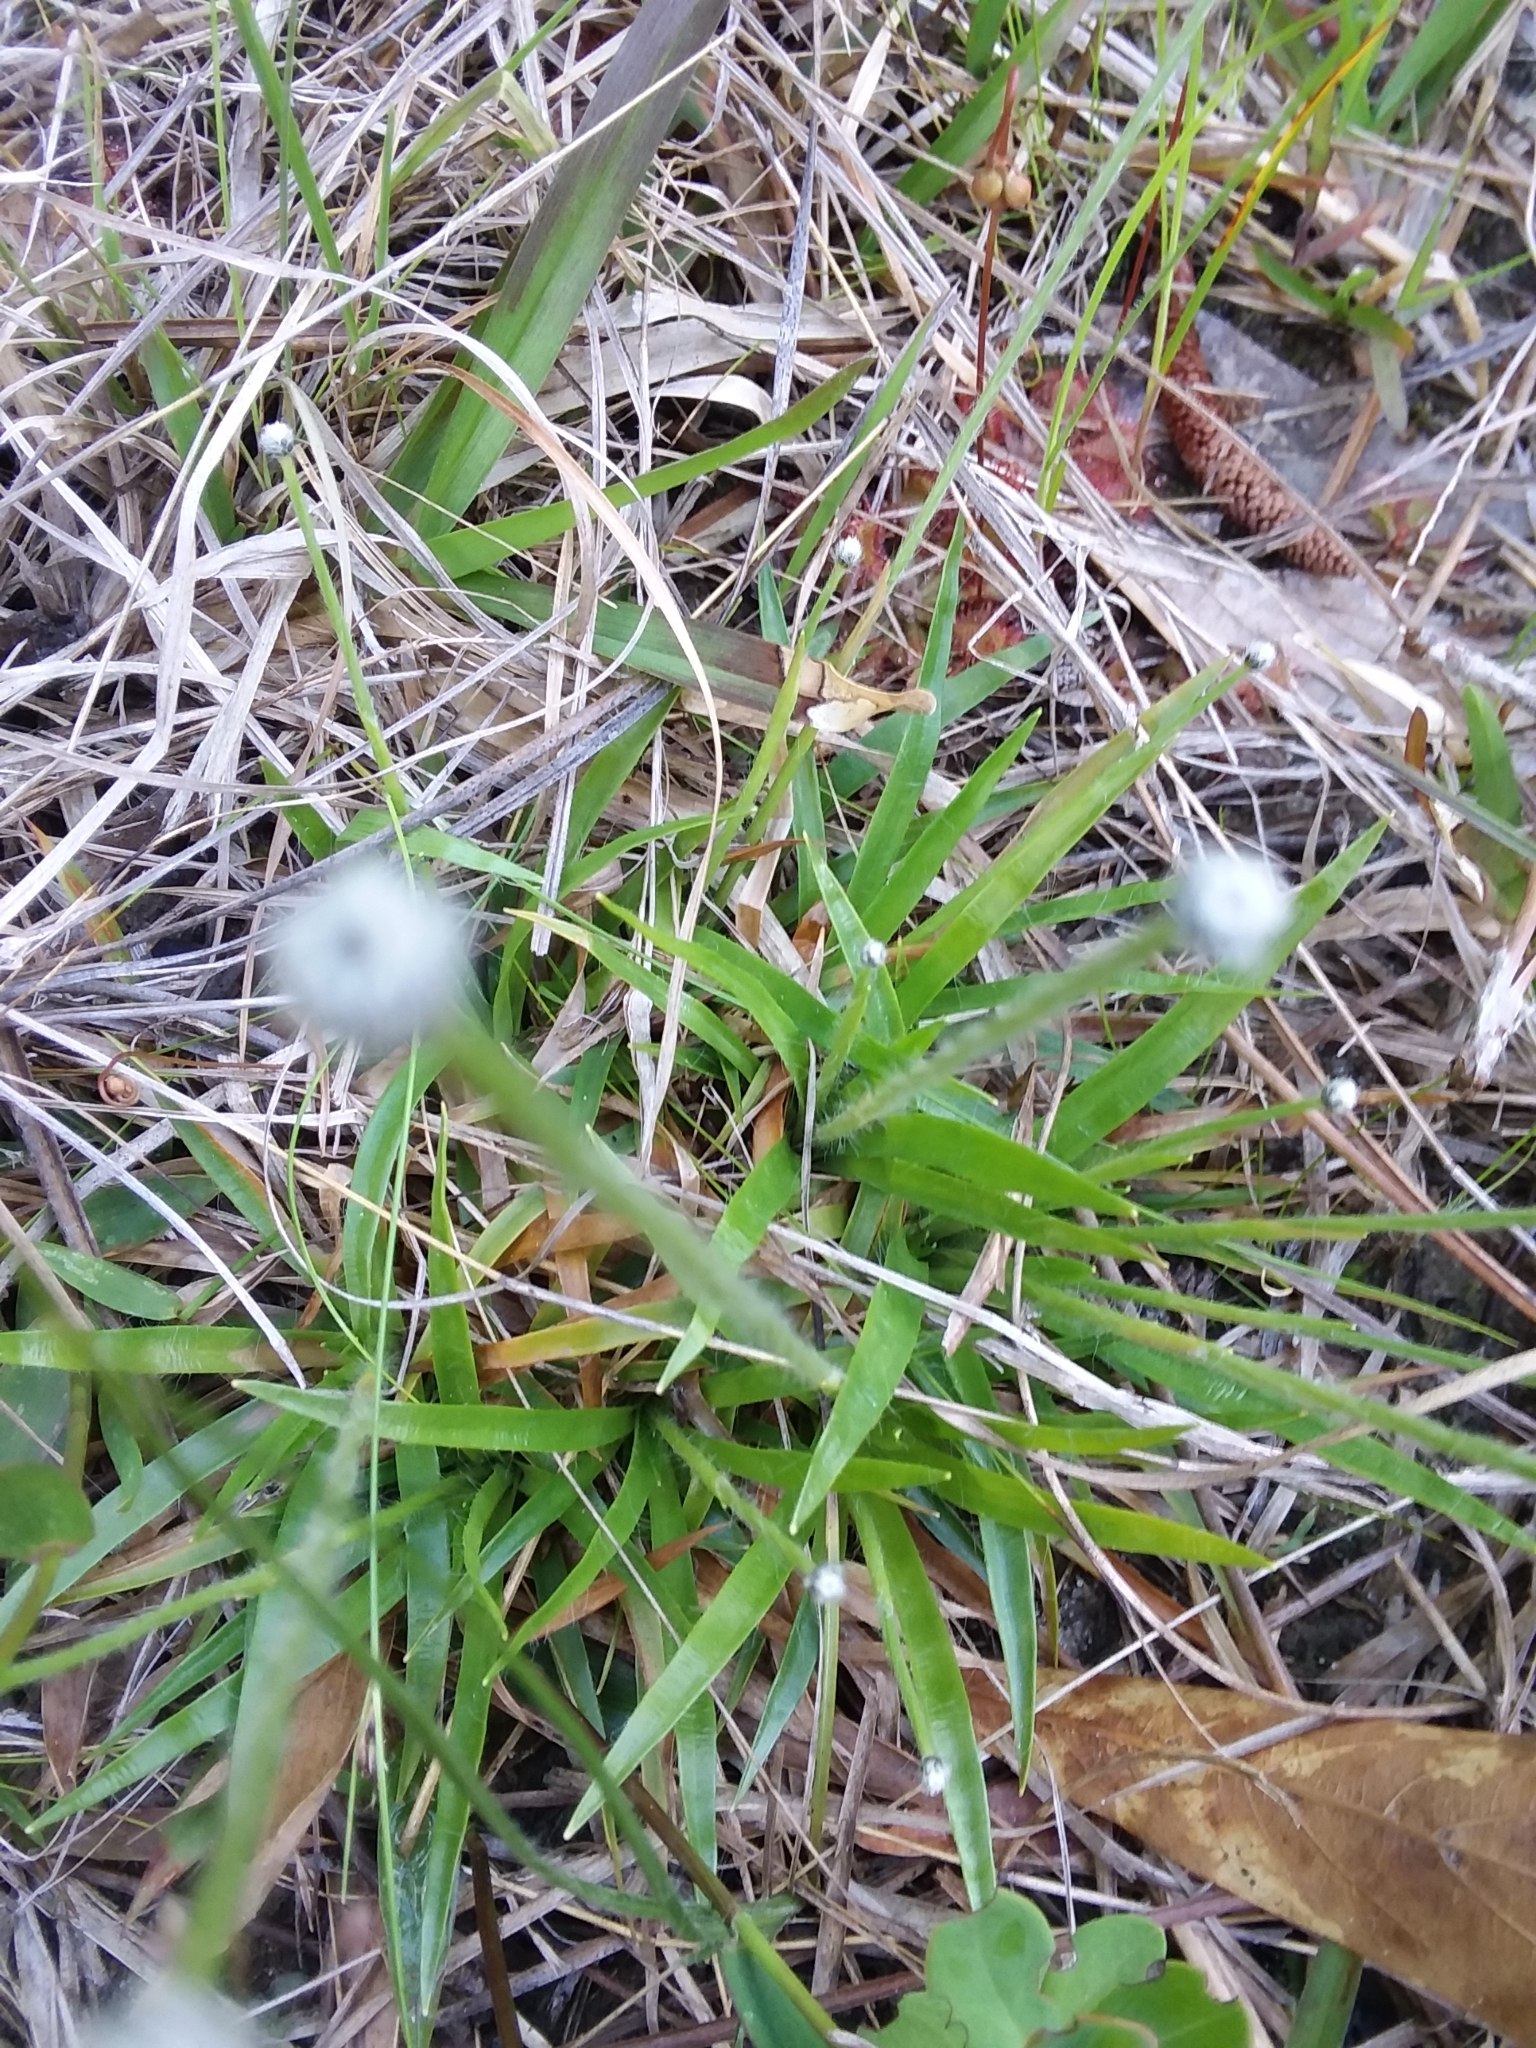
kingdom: Plantae
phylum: Tracheophyta
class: Liliopsida
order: Poales
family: Eriocaulaceae
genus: Paepalanthus
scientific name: Paepalanthus anceps
